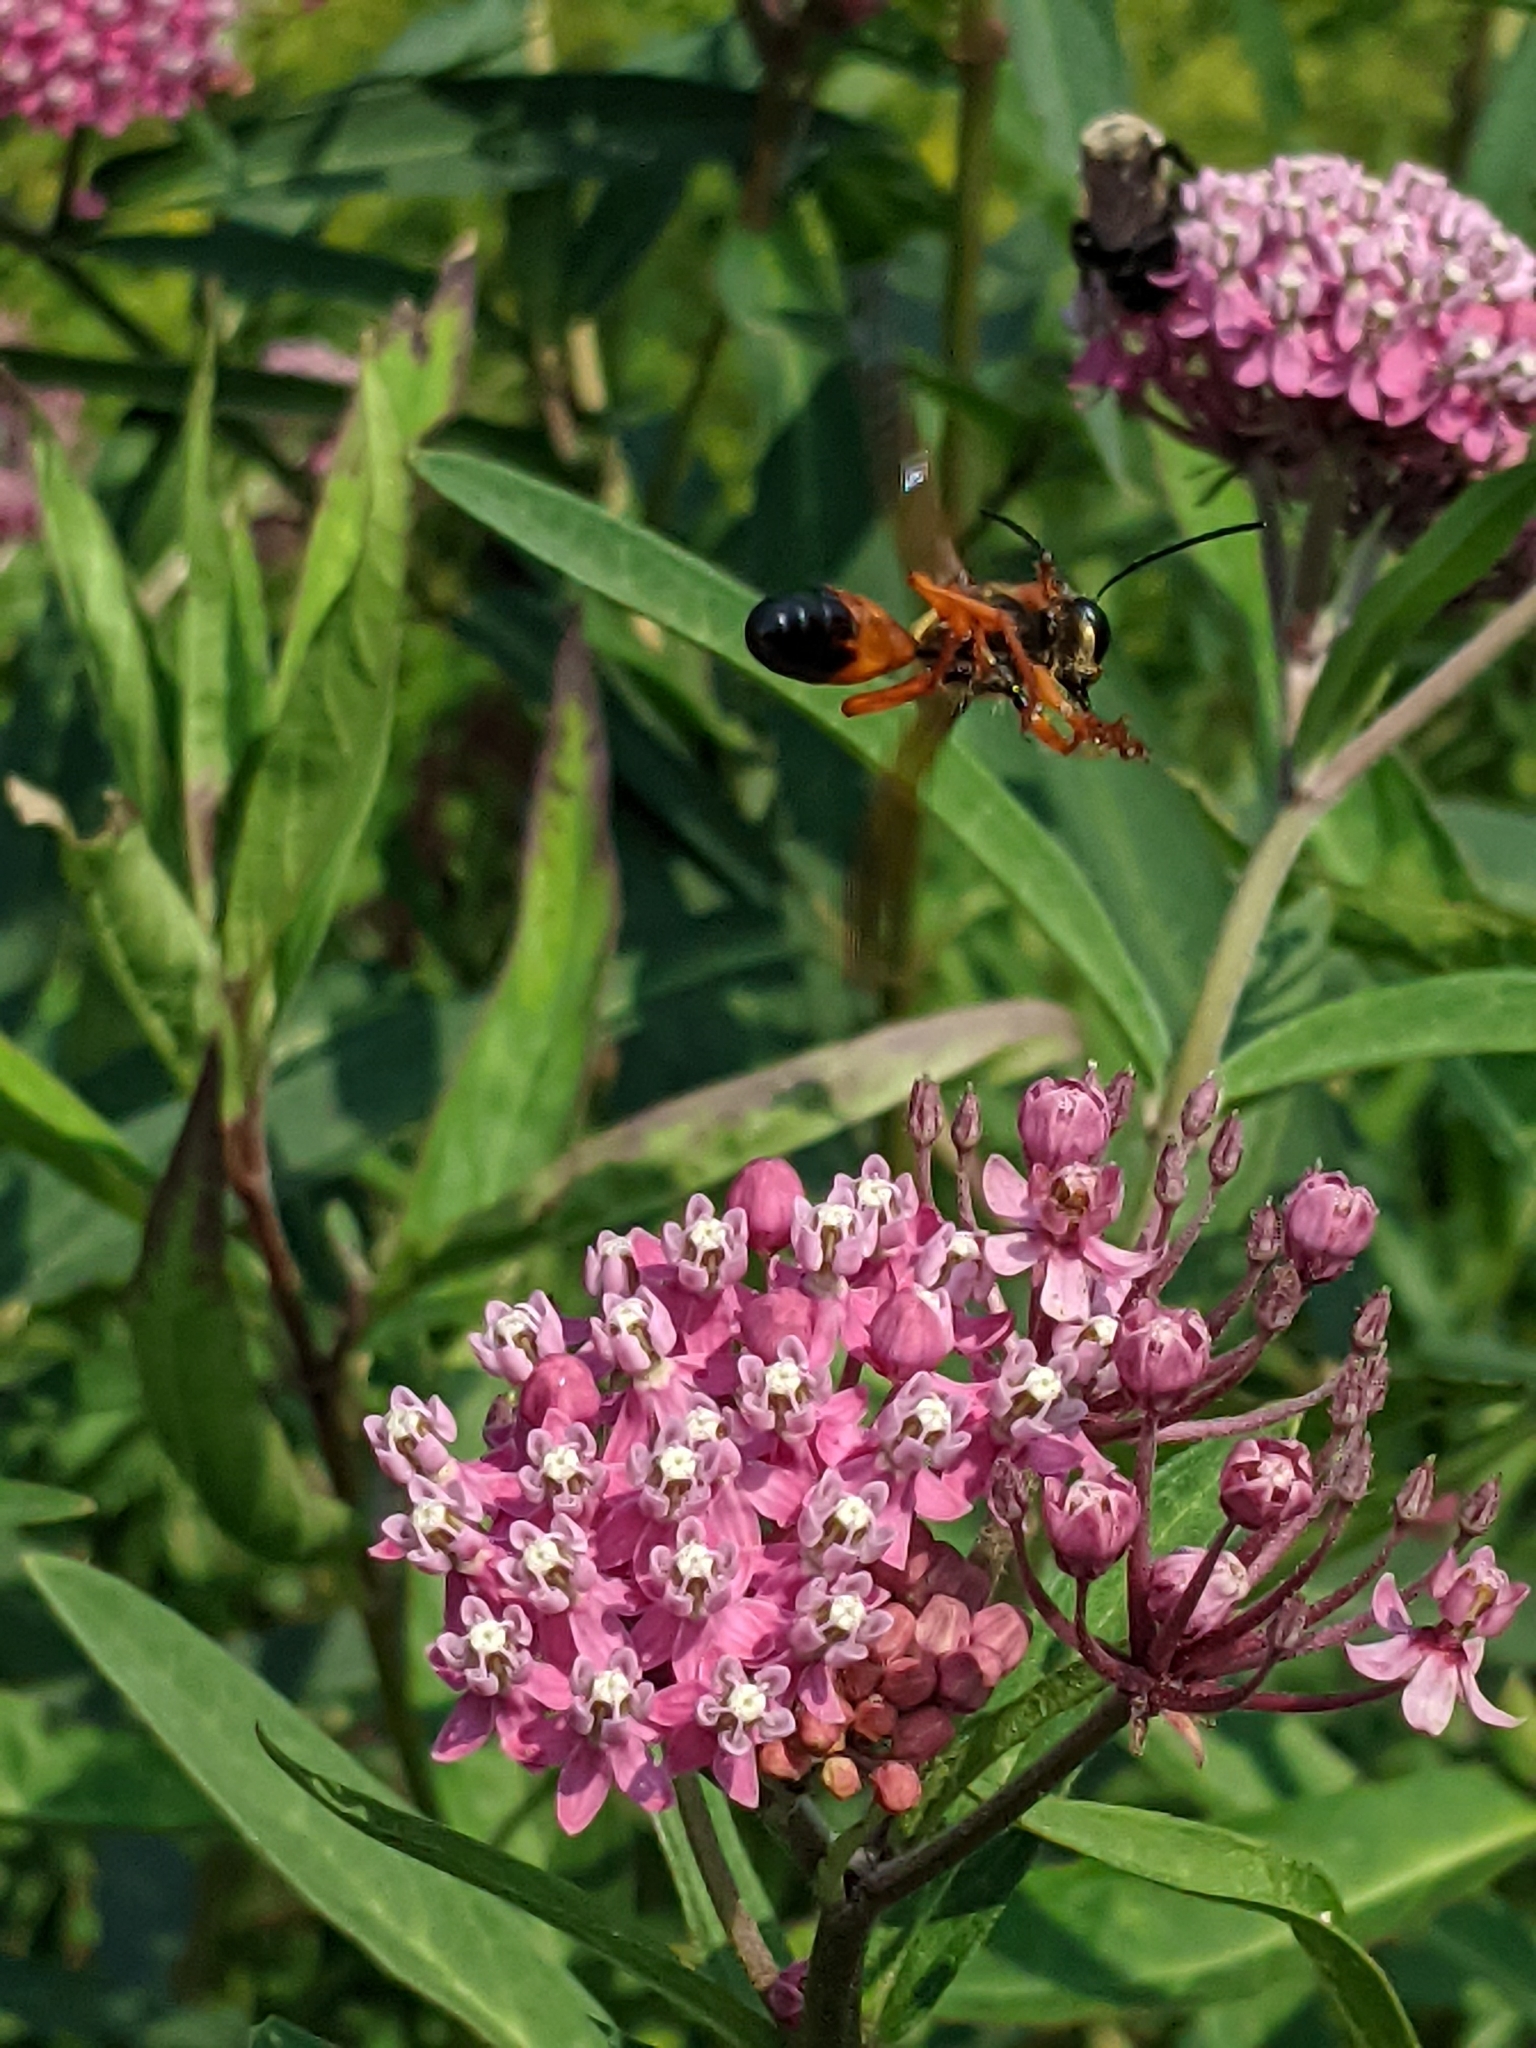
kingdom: Animalia
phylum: Arthropoda
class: Insecta
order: Hymenoptera
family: Sphecidae
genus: Sphex
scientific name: Sphex ichneumoneus
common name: Great golden digger wasp
